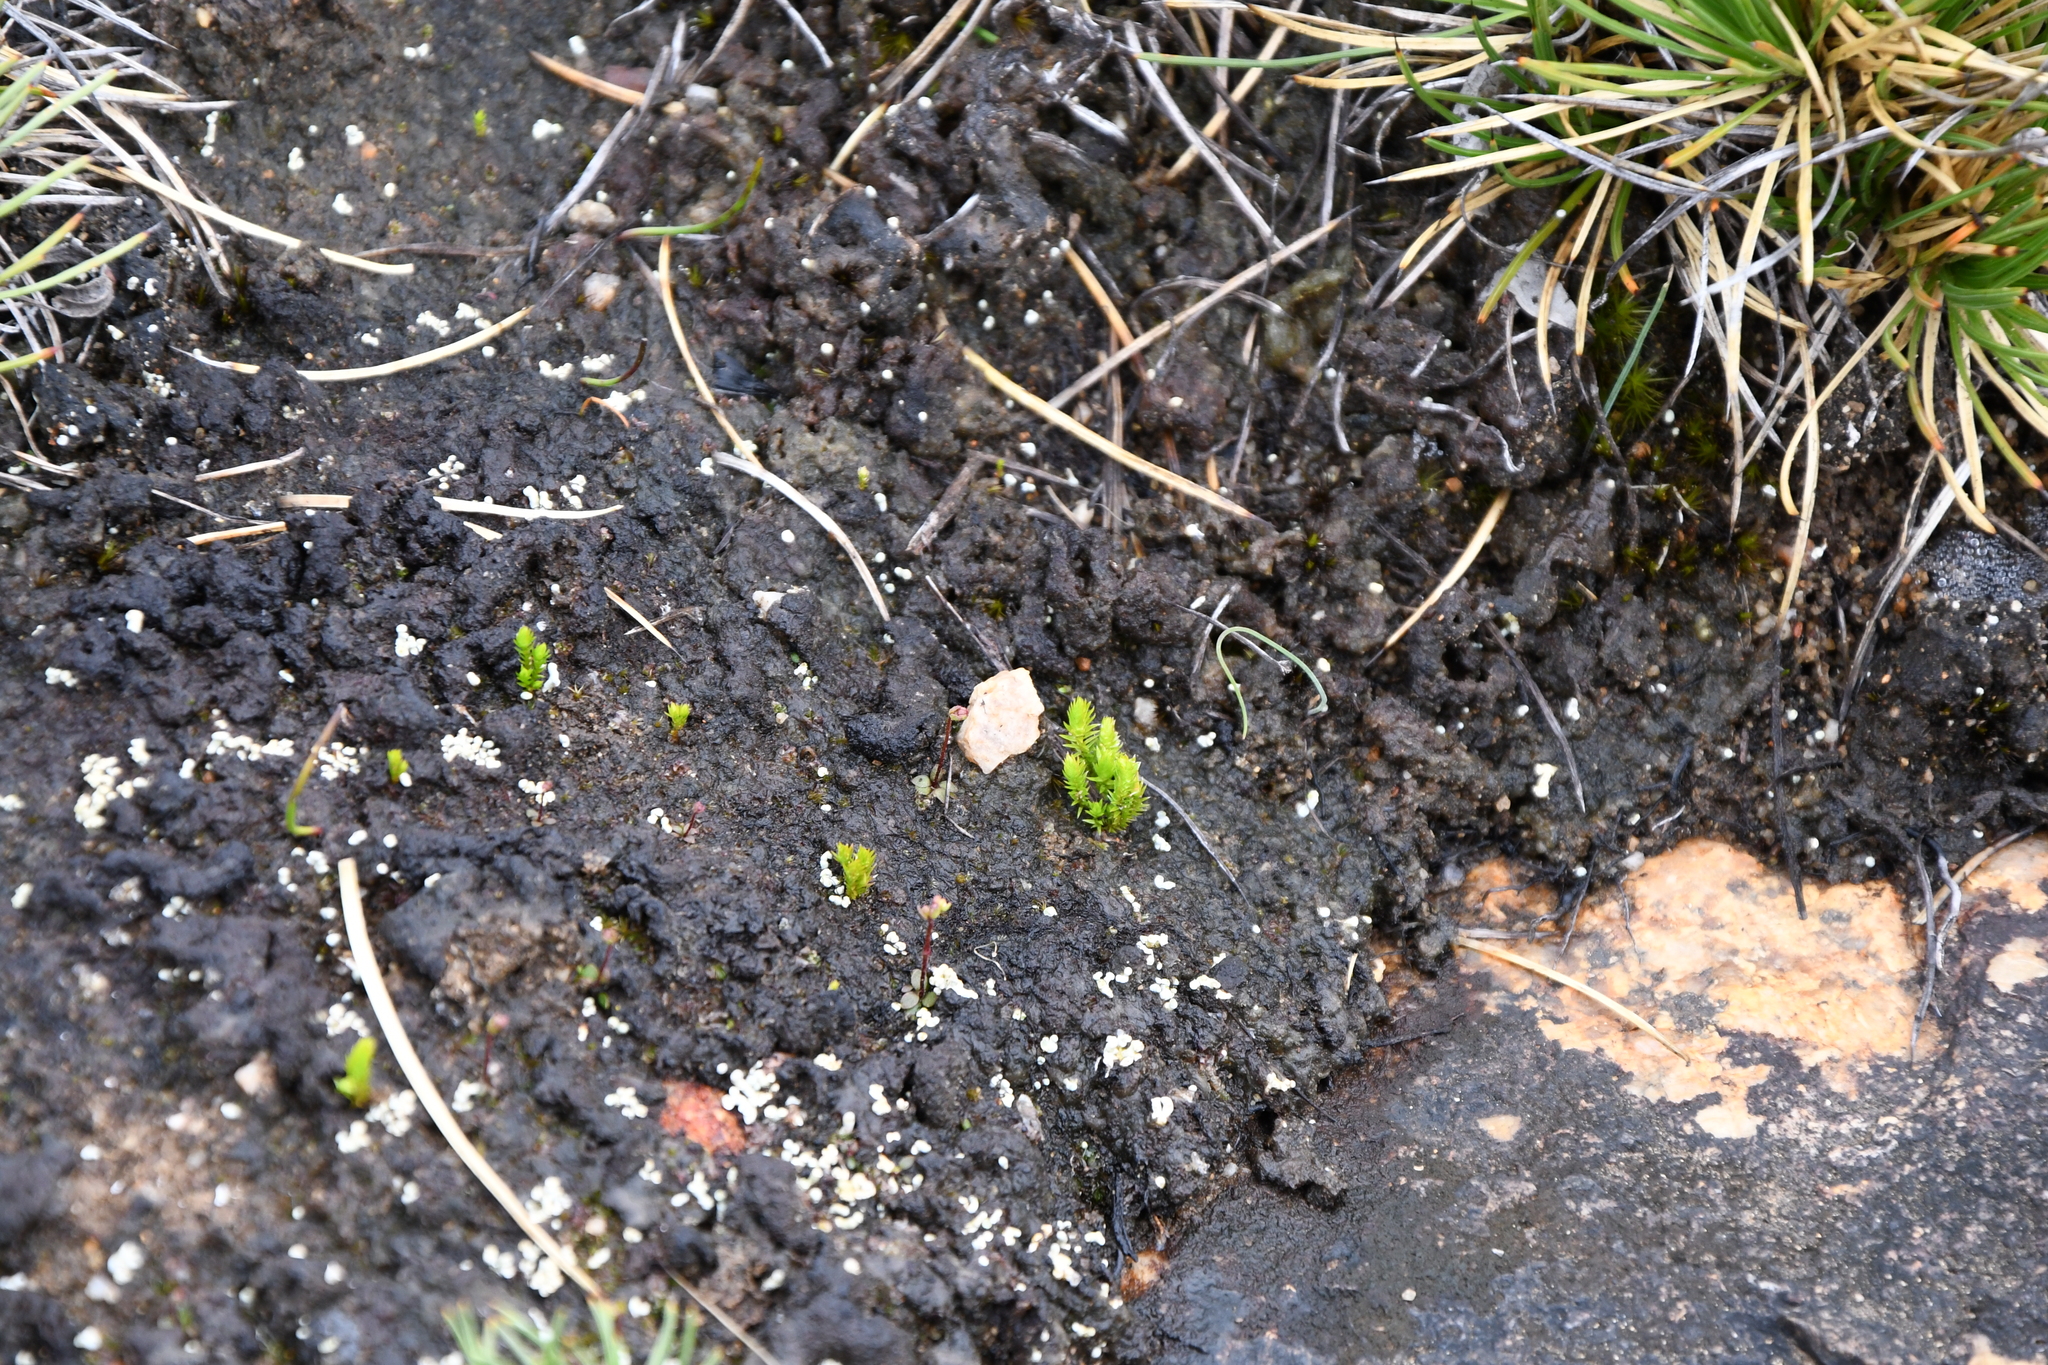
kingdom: Plantae
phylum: Tracheophyta
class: Lycopodiopsida
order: Selaginellales
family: Selaginellaceae
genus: Selaginella
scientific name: Selaginella gracillima
